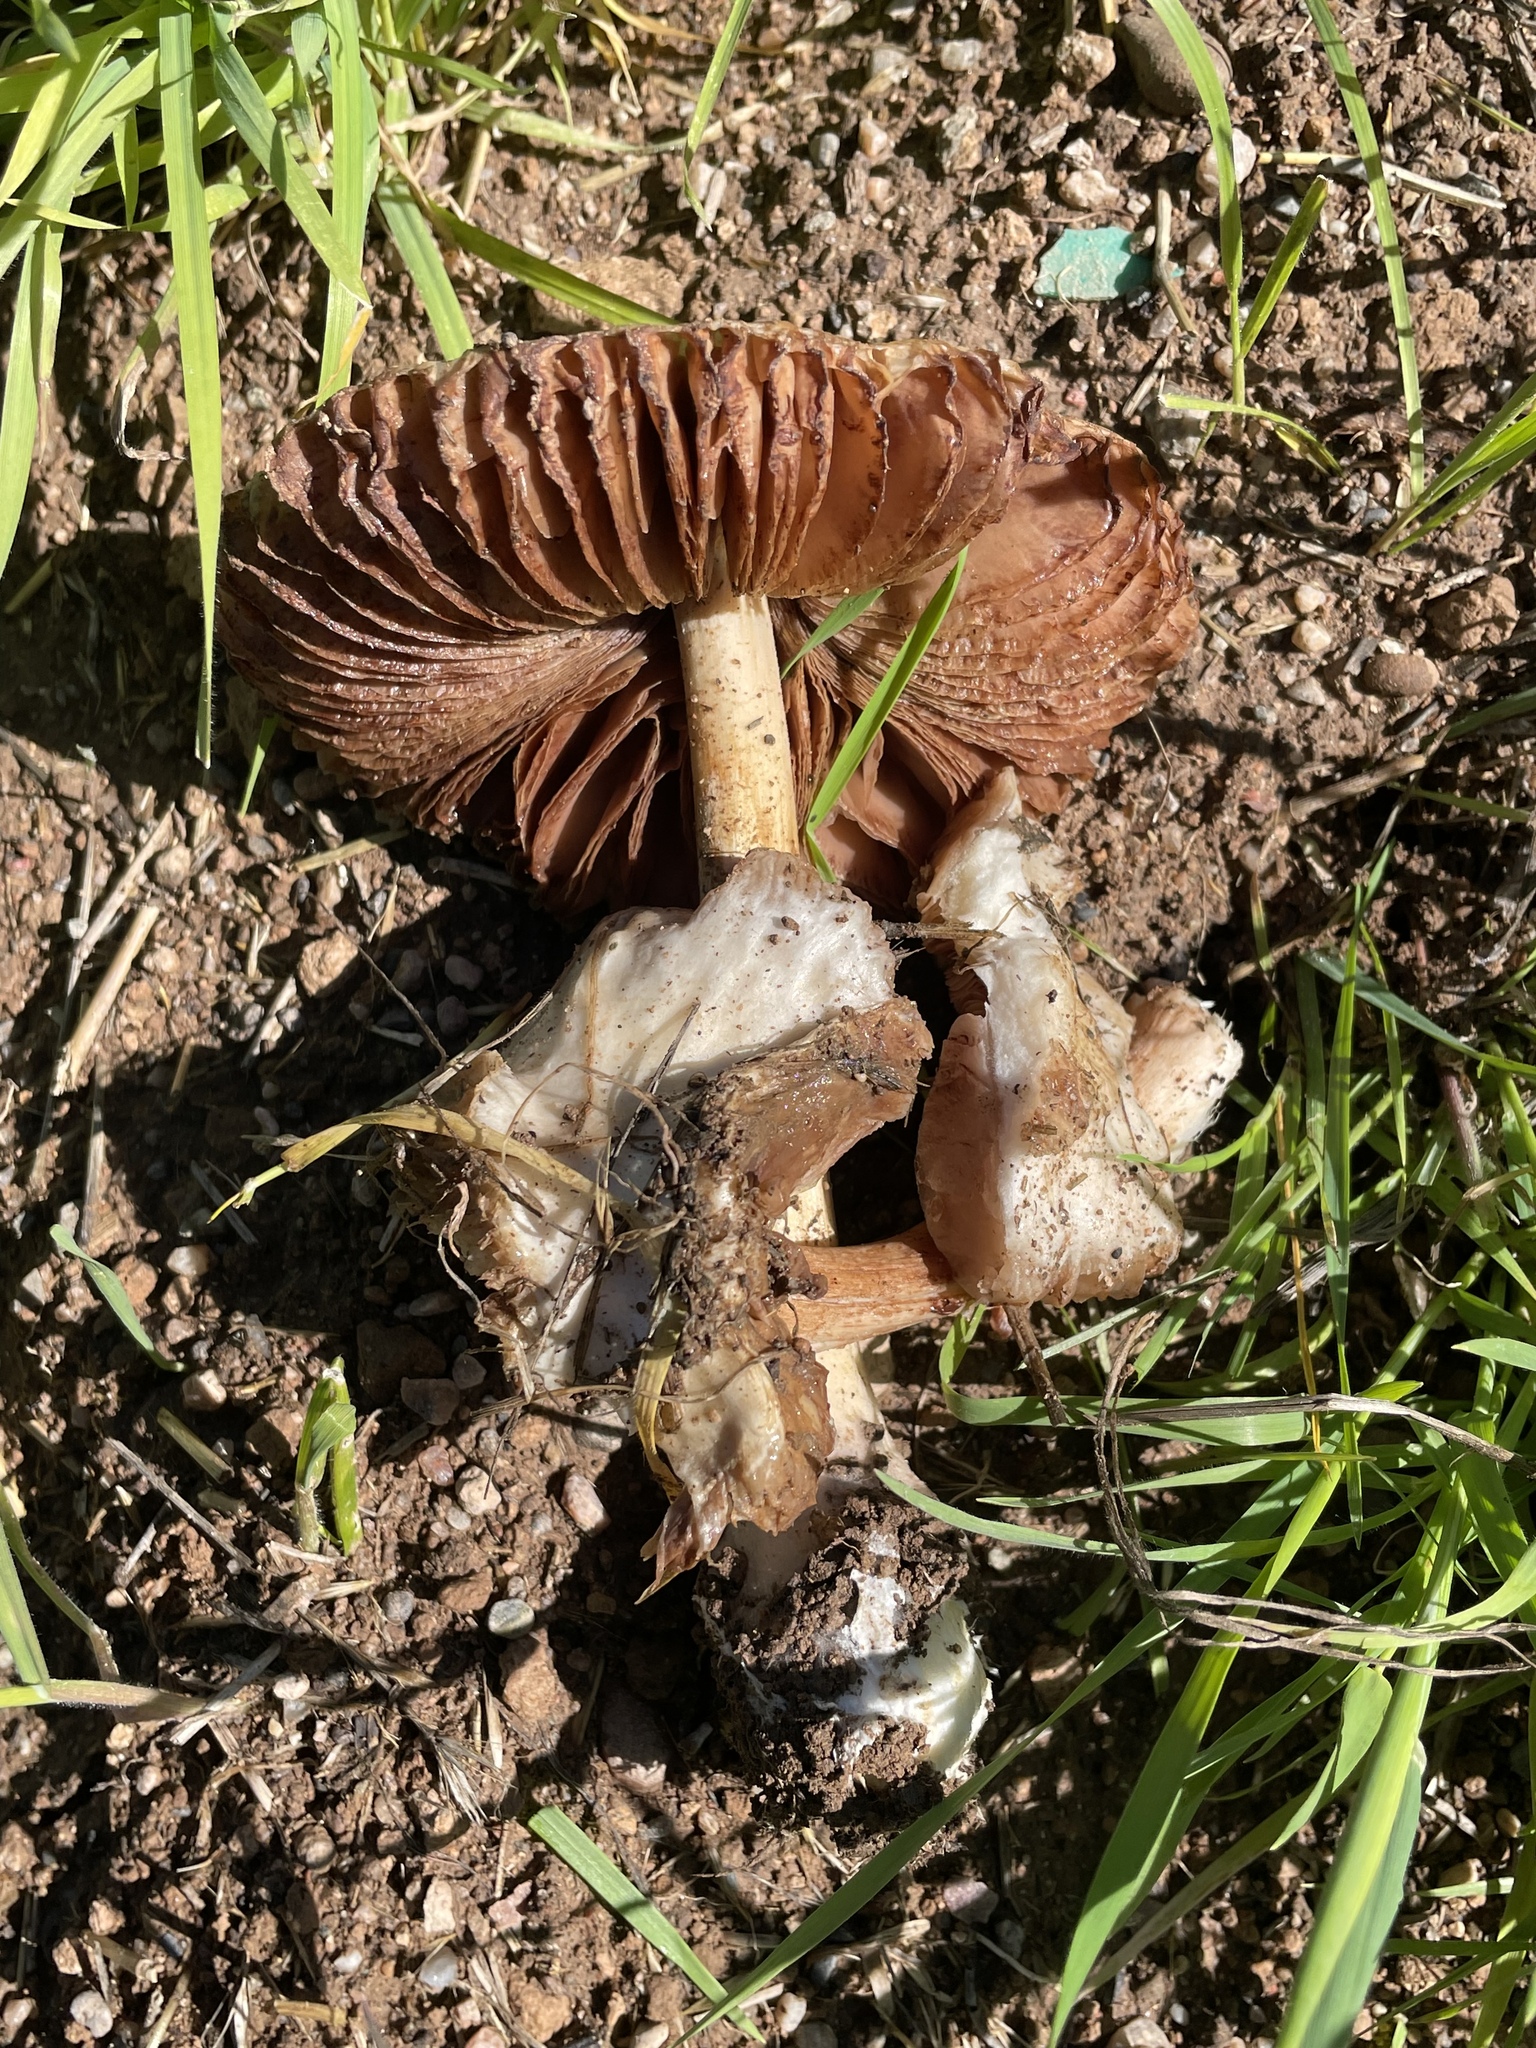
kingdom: Fungi
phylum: Basidiomycota
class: Agaricomycetes
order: Agaricales
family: Pluteaceae
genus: Volvopluteus
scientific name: Volvopluteus gloiocephalus
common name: Stubble rosegill
